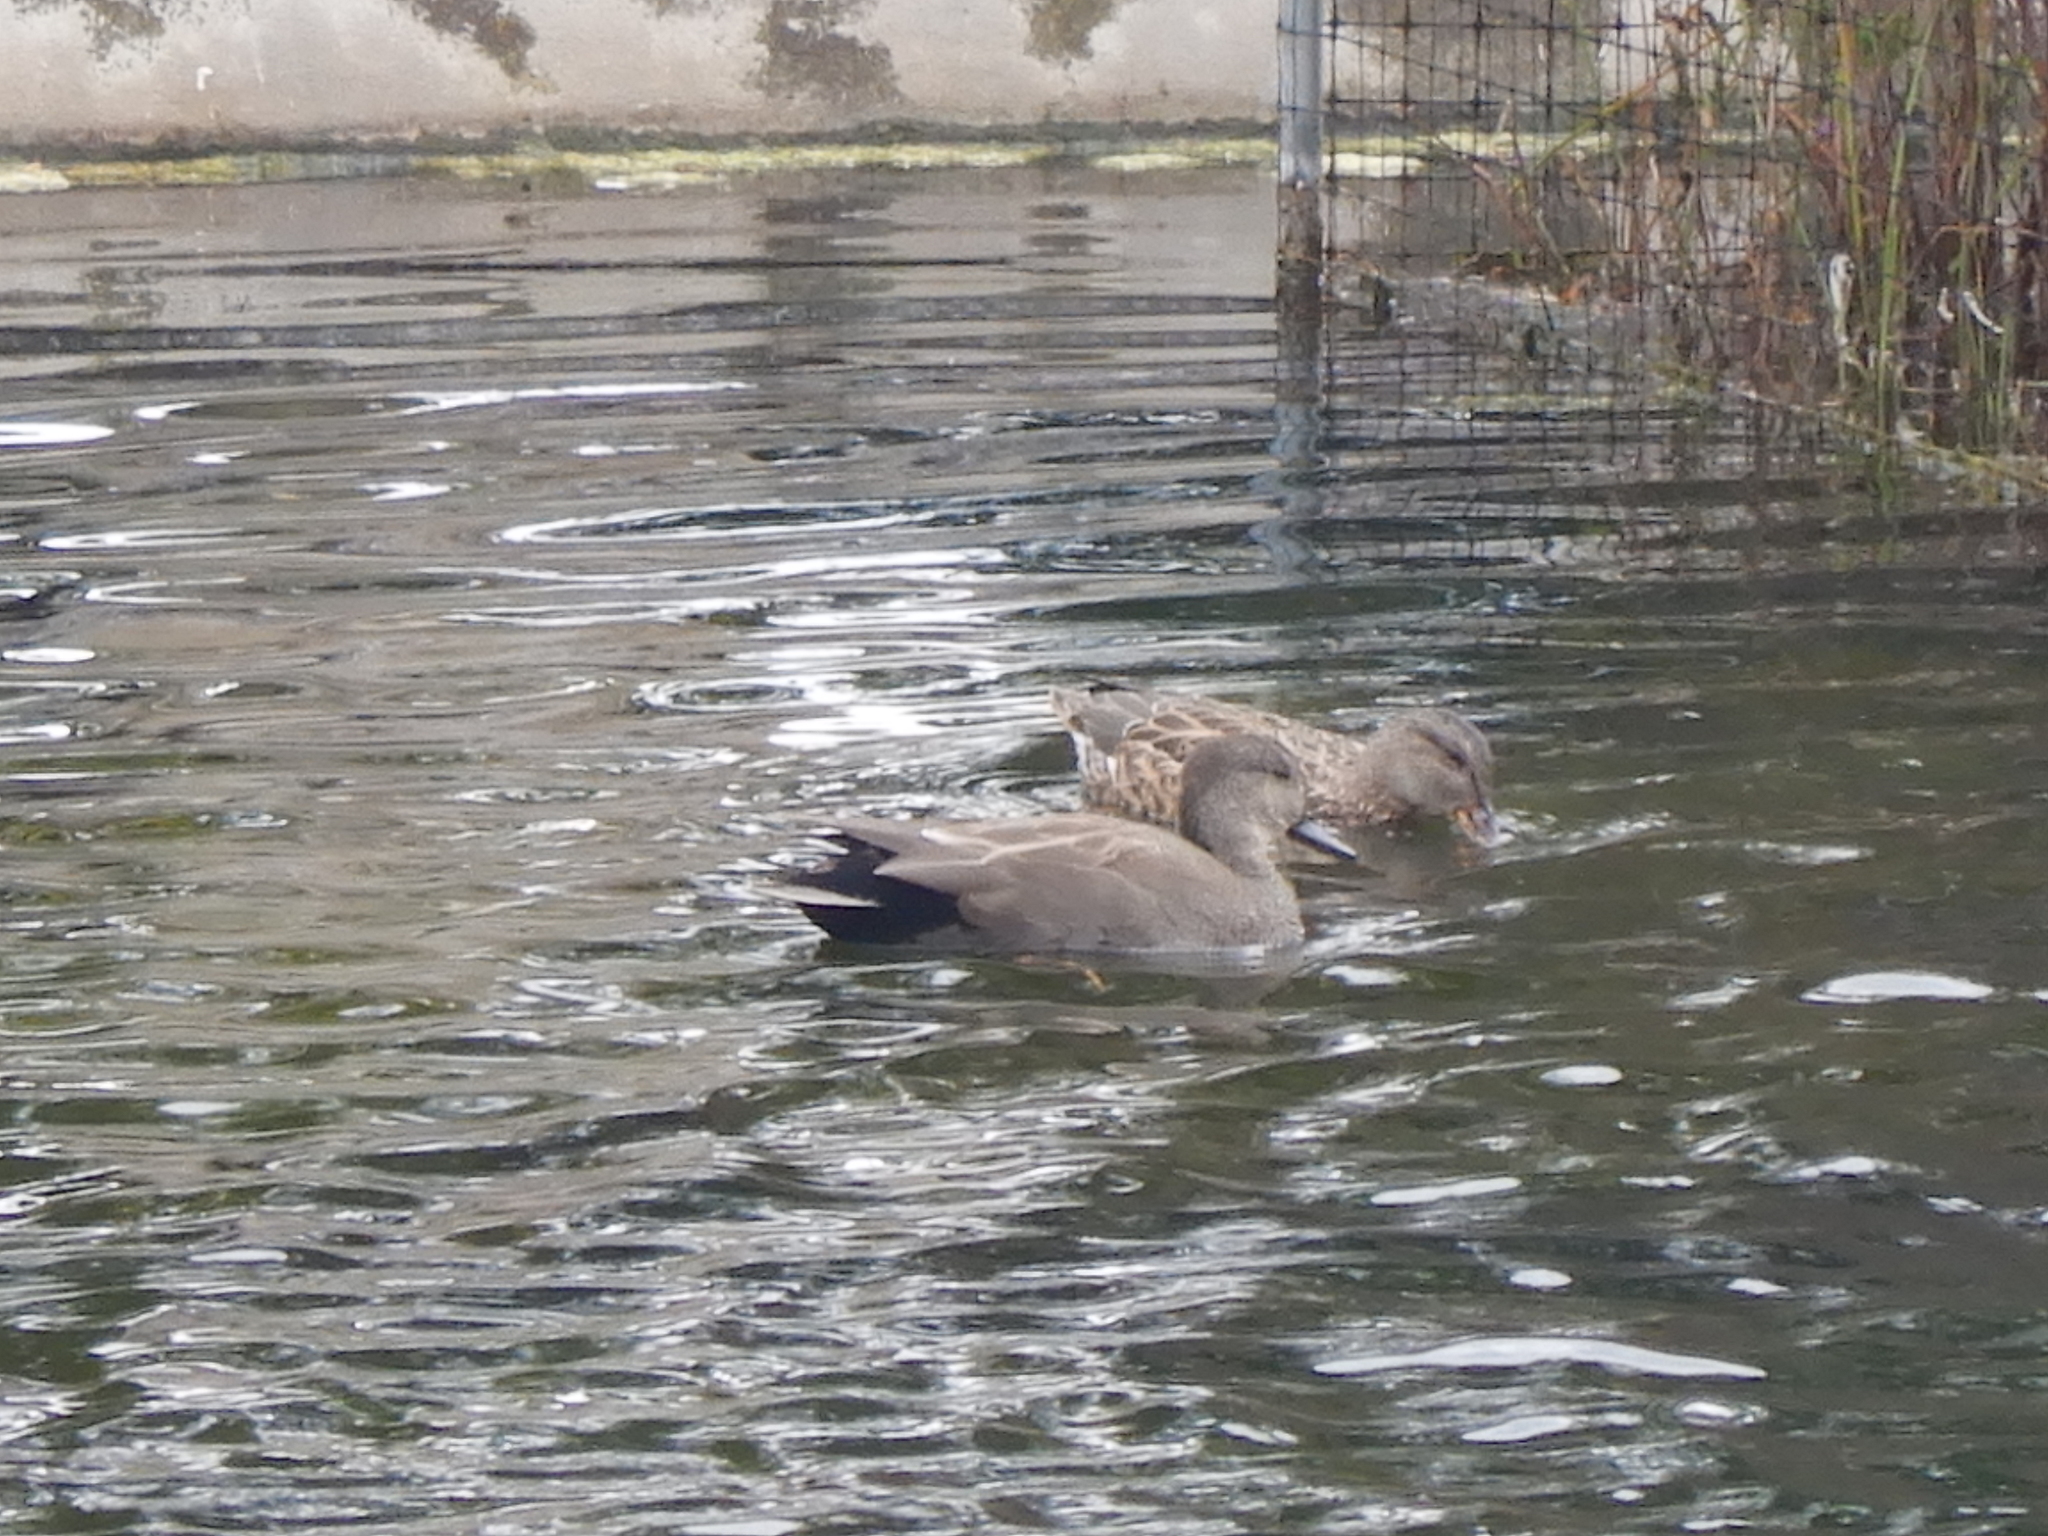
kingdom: Animalia
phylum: Chordata
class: Aves
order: Anseriformes
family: Anatidae
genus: Mareca
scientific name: Mareca strepera
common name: Gadwall
